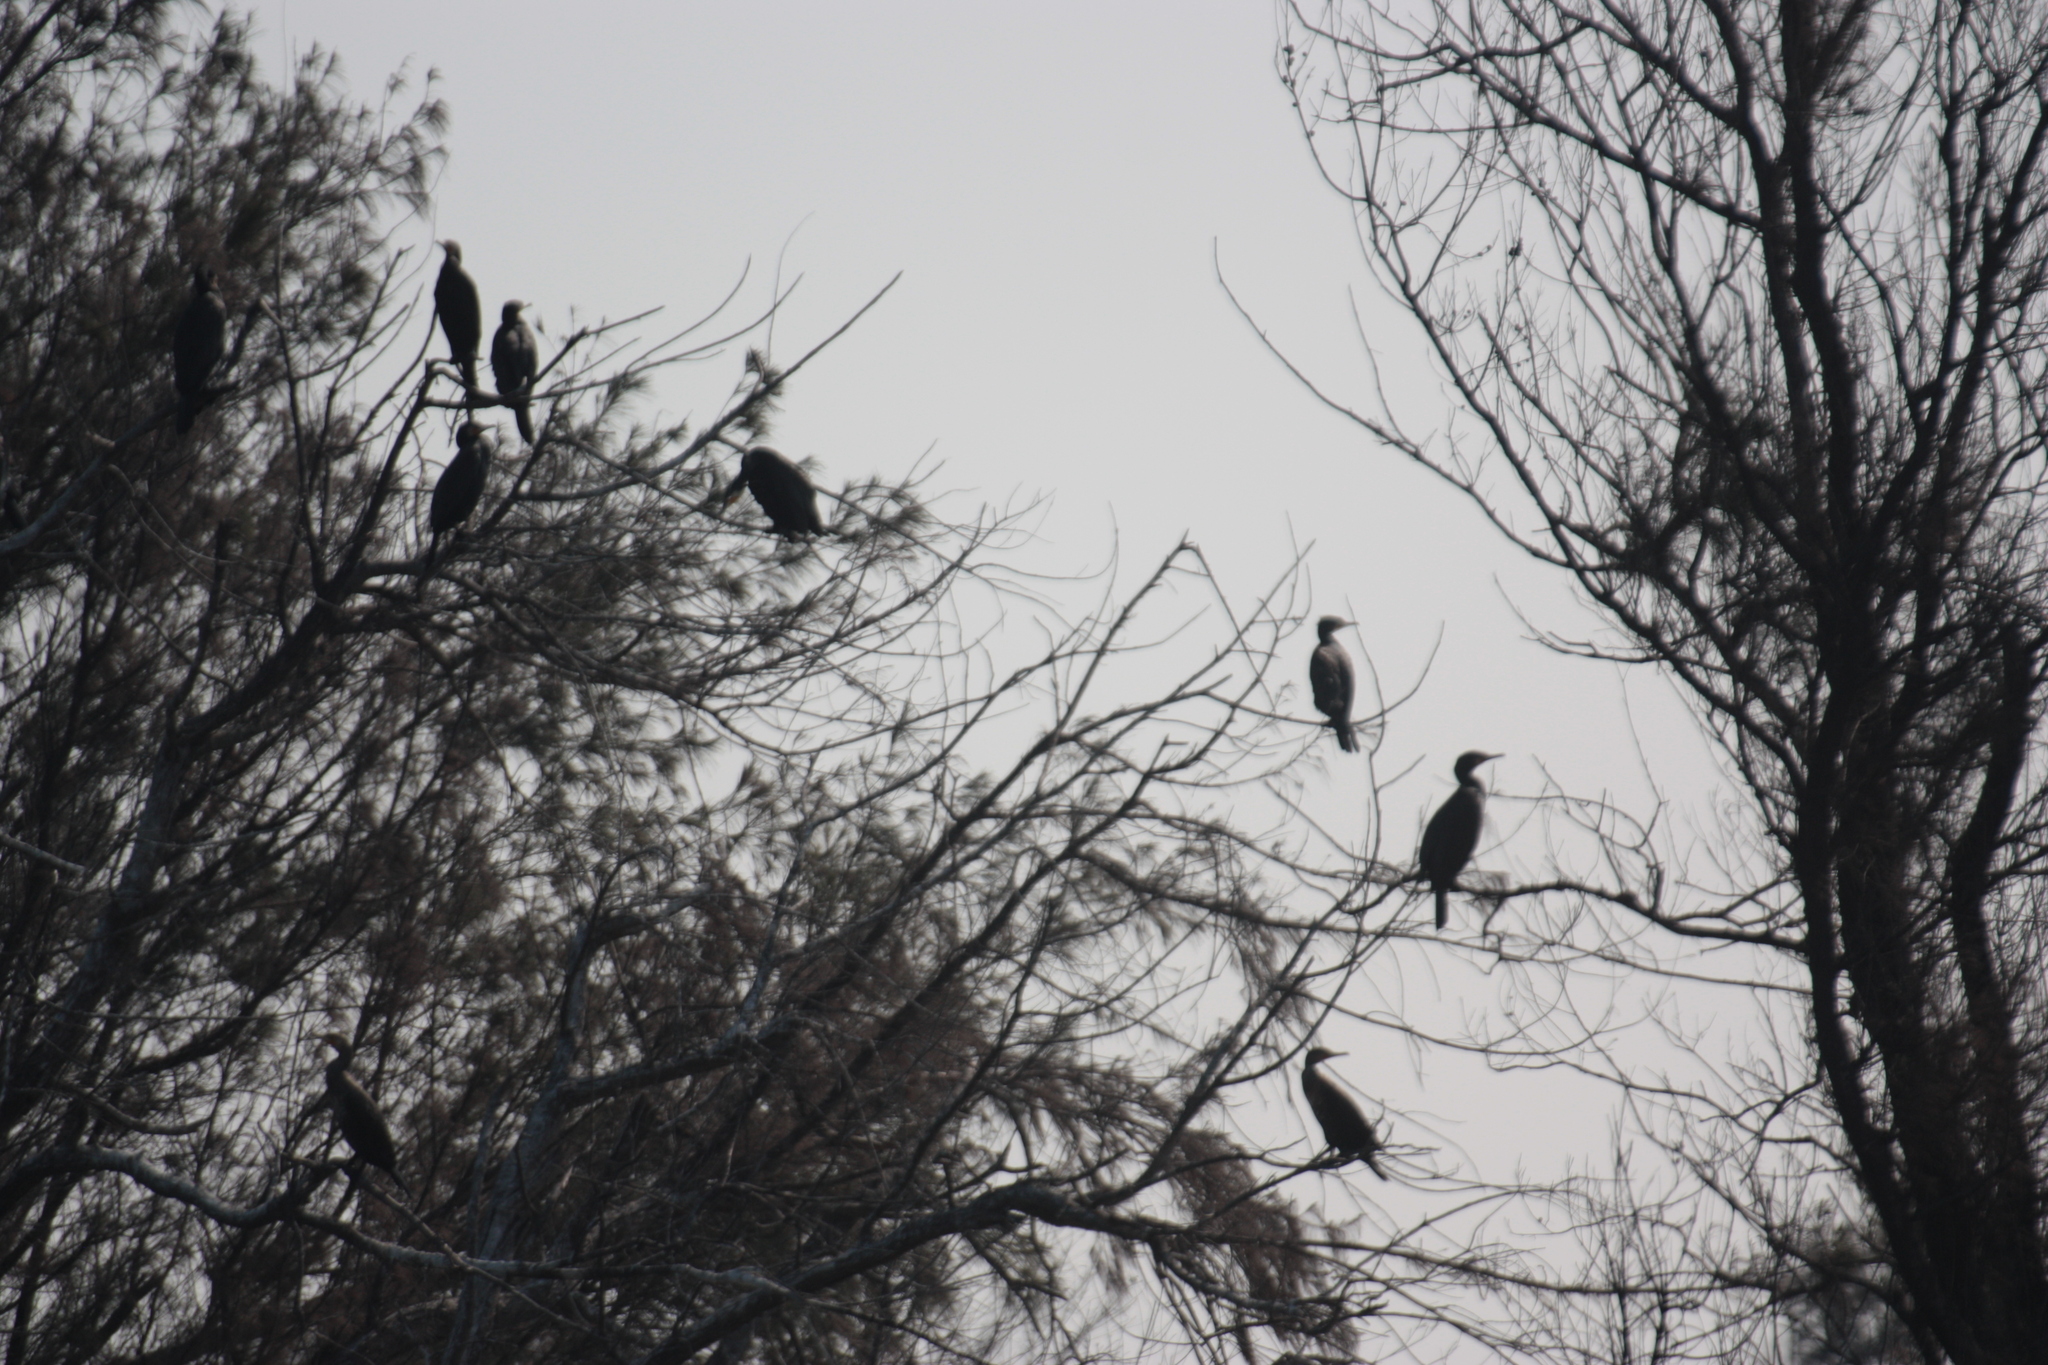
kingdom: Animalia
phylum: Chordata
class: Aves
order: Suliformes
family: Phalacrocoracidae
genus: Phalacrocorax
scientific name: Phalacrocorax carbo
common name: Great cormorant
